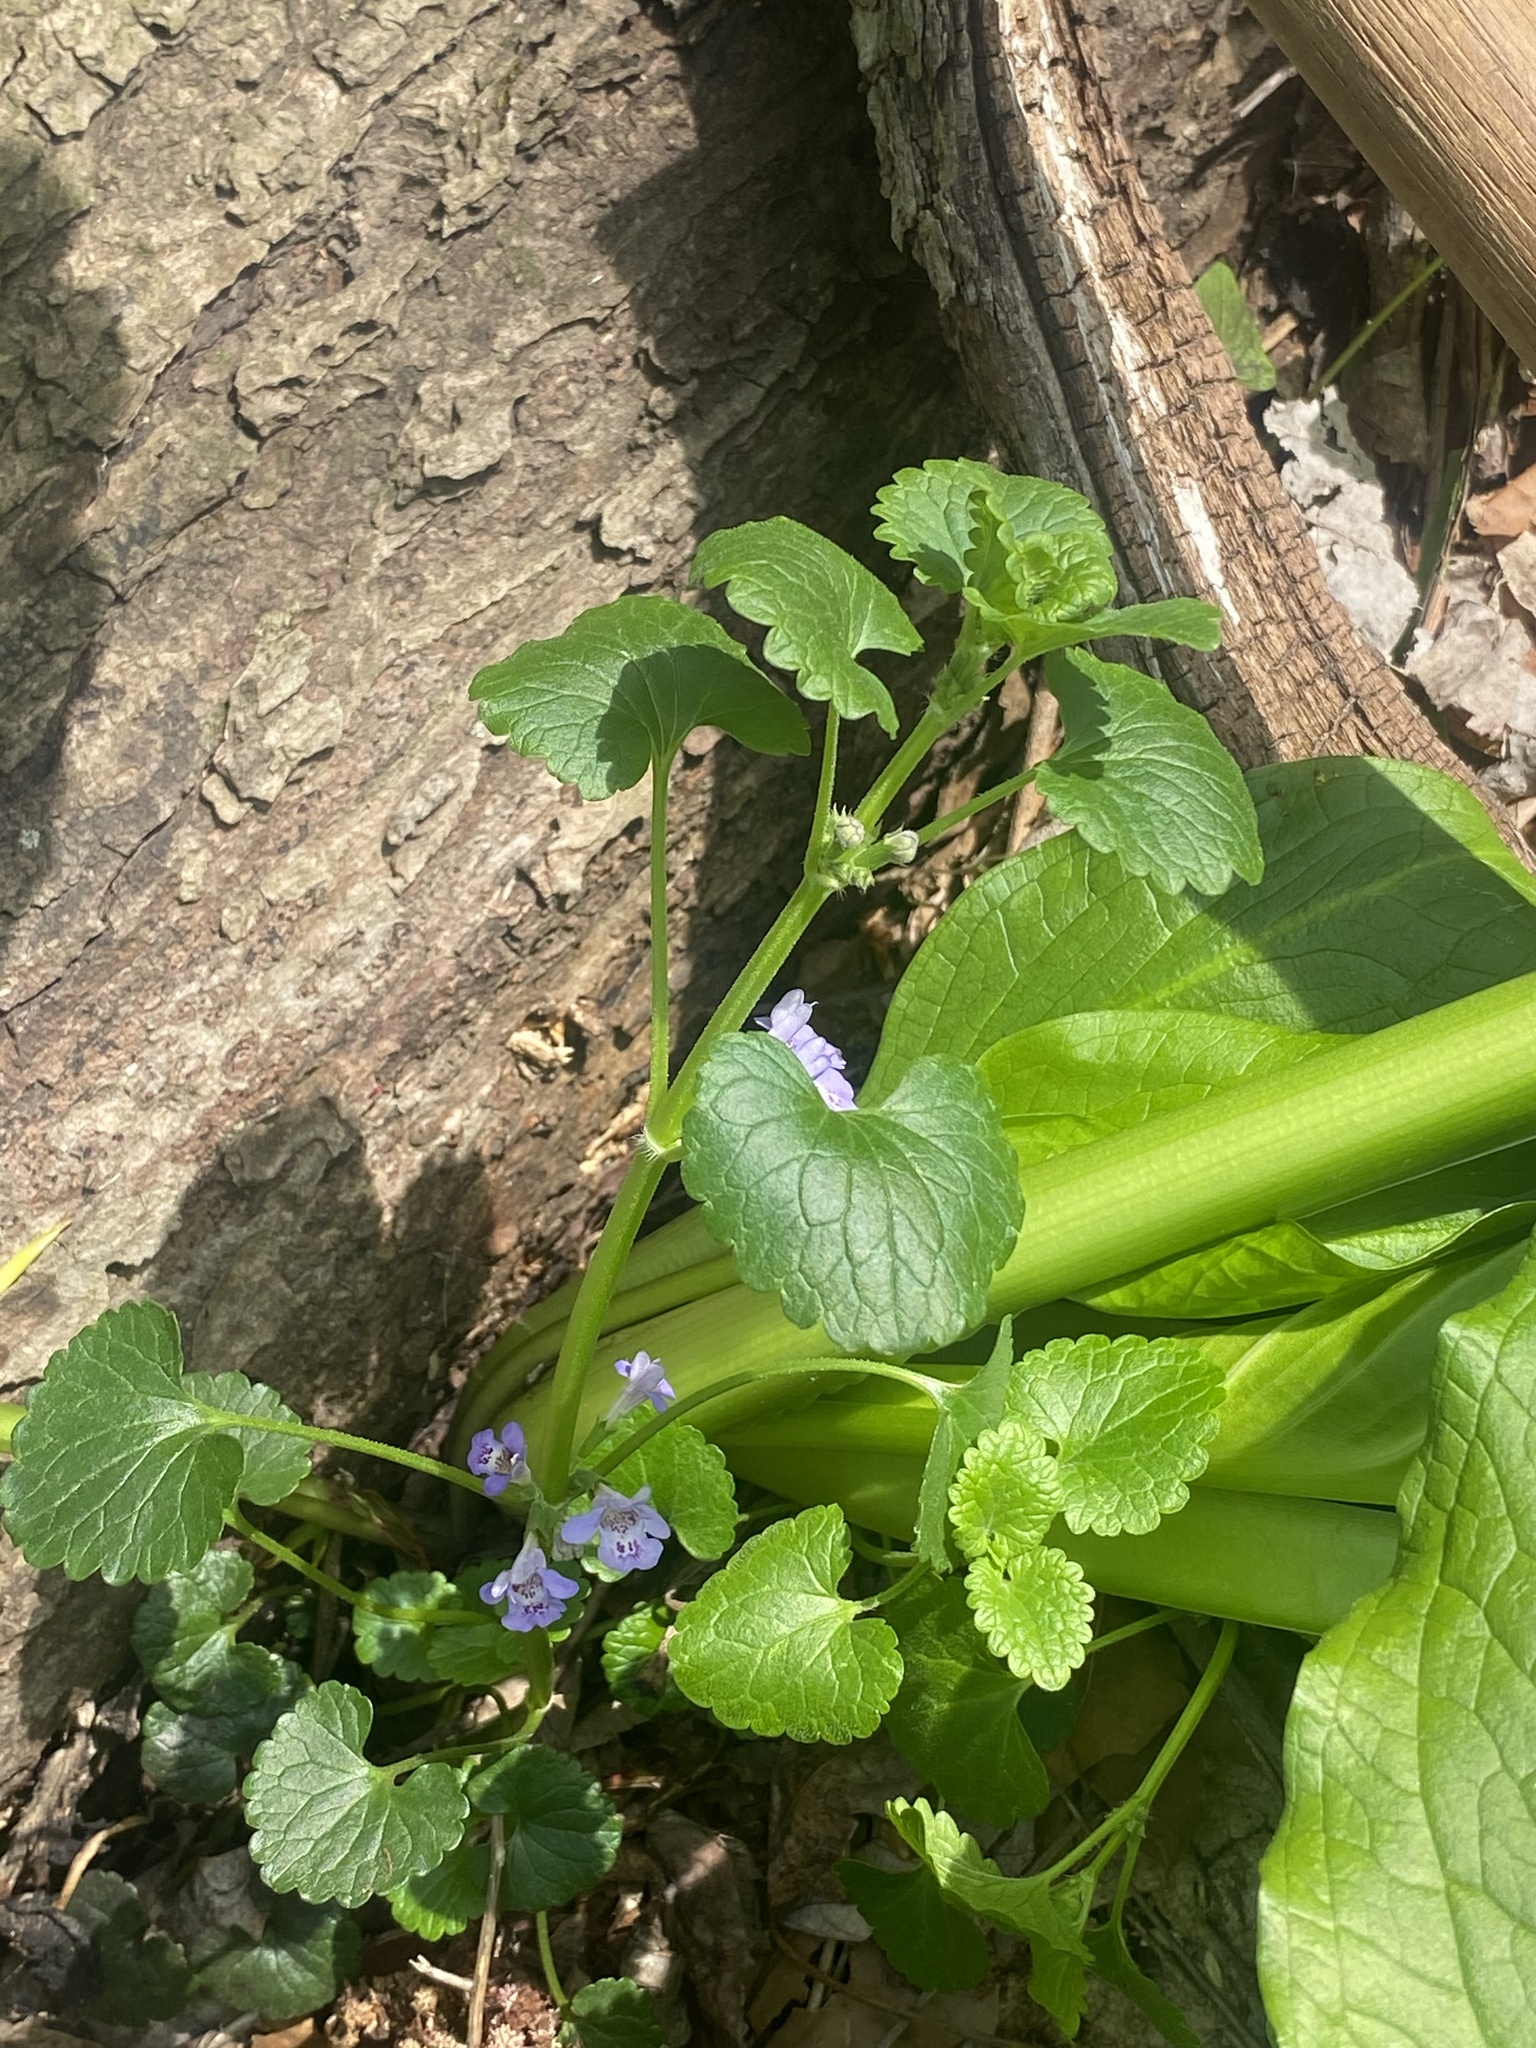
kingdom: Plantae
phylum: Tracheophyta
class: Magnoliopsida
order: Lamiales
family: Lamiaceae
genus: Glechoma
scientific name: Glechoma hederacea
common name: Ground ivy
